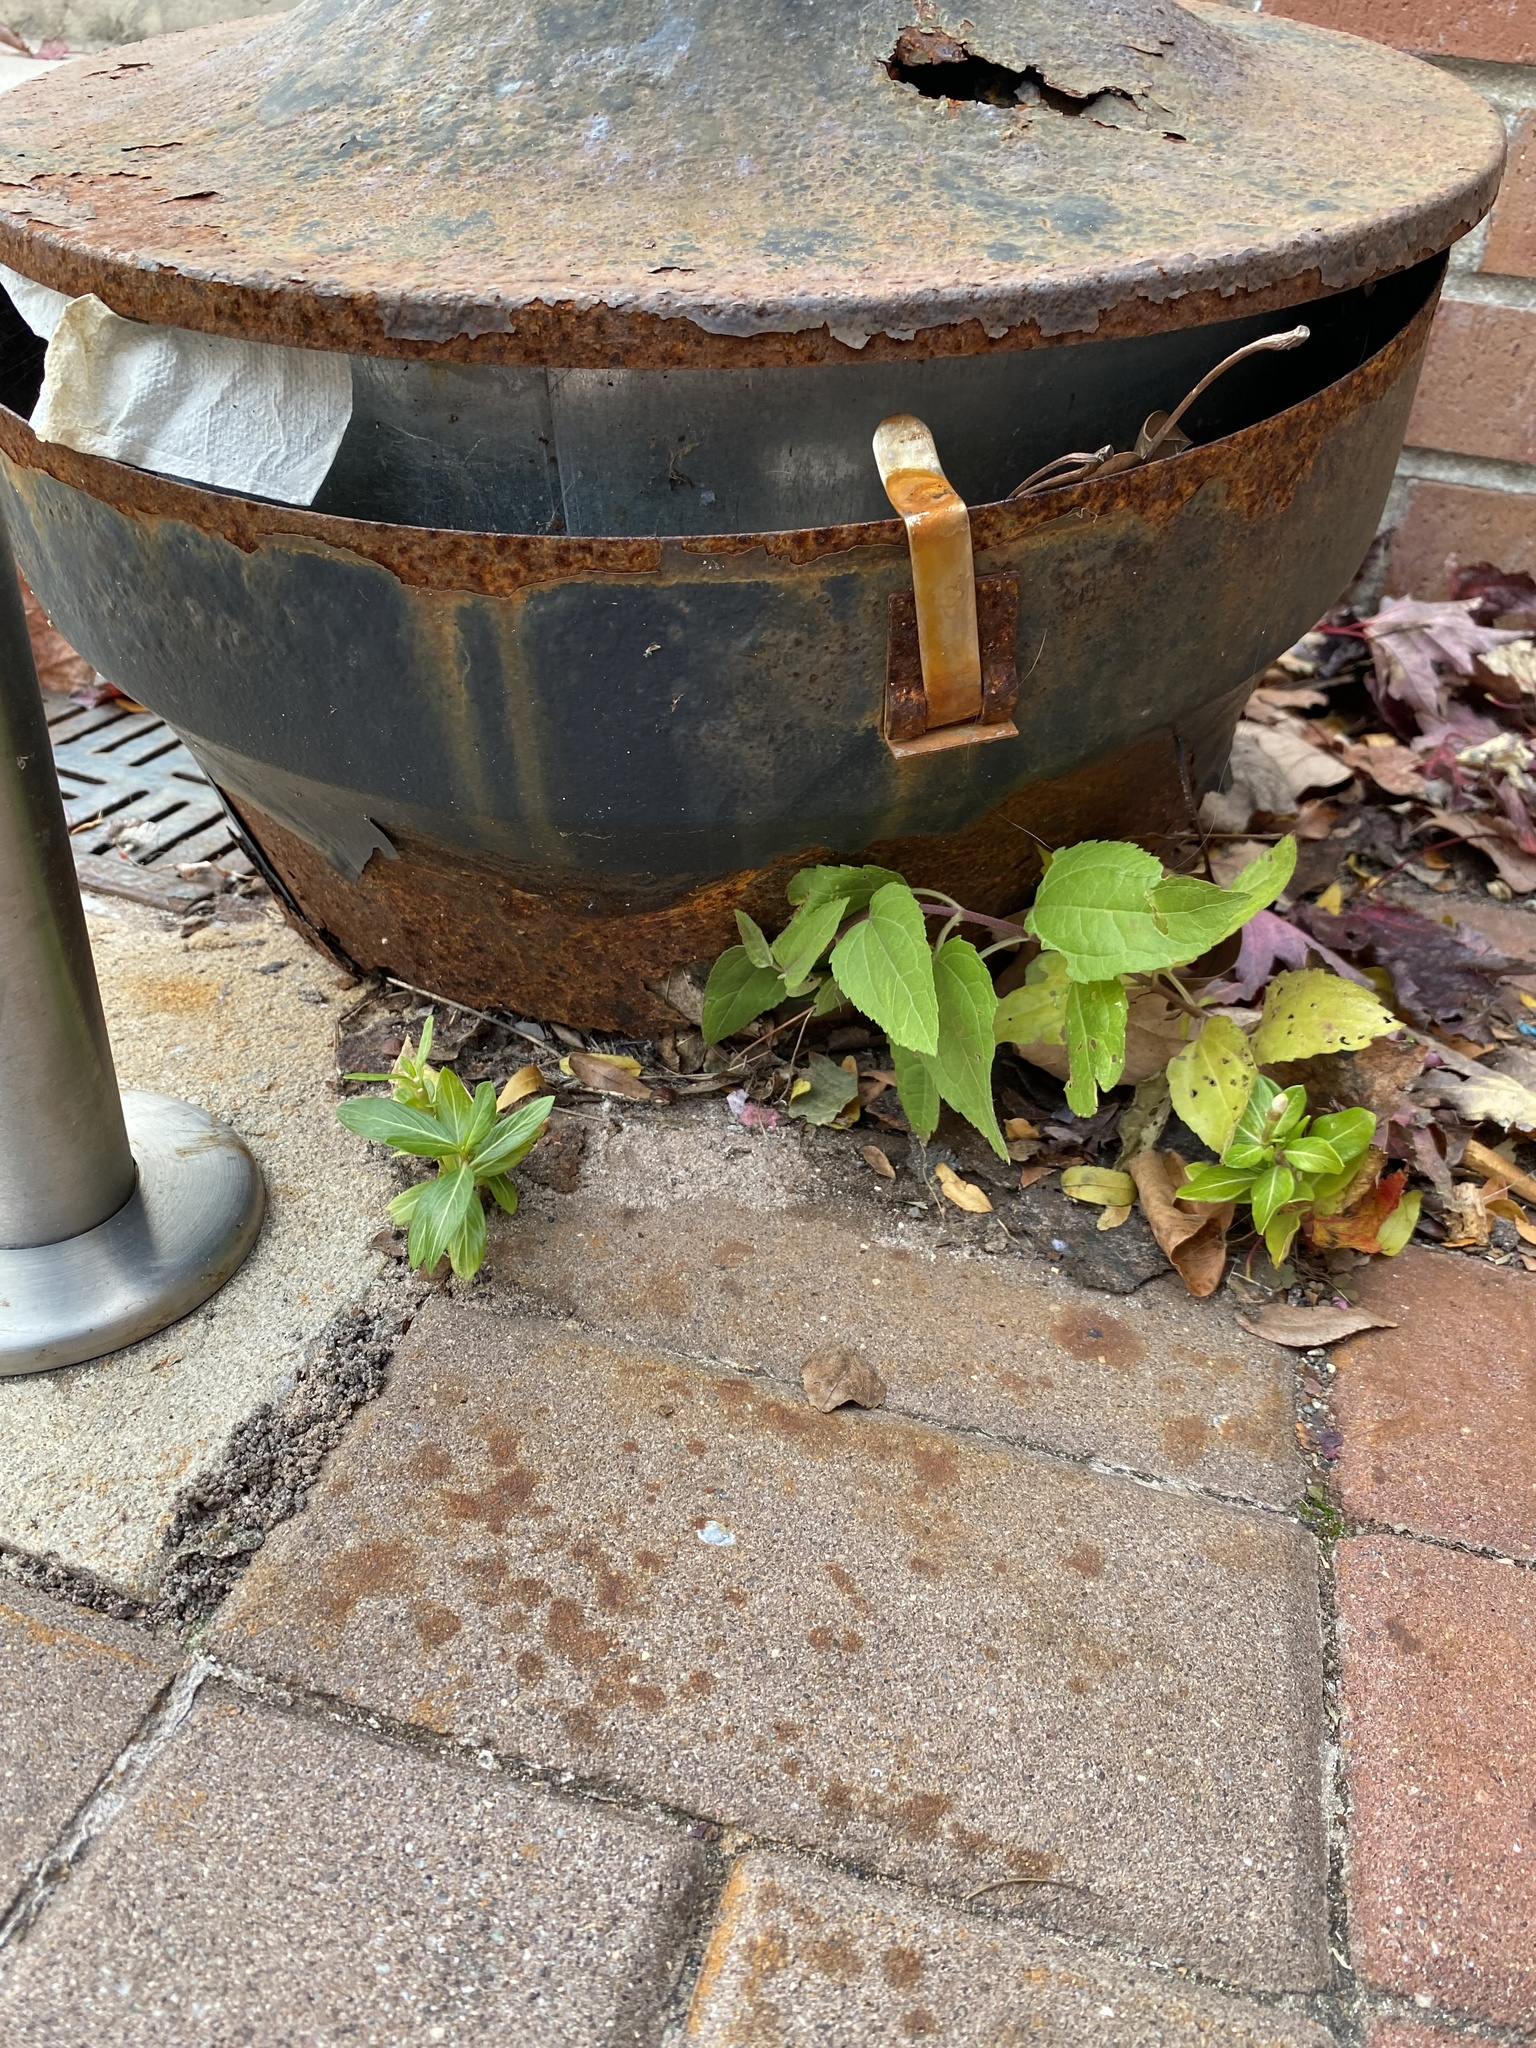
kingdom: Plantae
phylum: Tracheophyta
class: Magnoliopsida
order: Gentianales
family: Apocynaceae
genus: Catharanthus
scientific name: Catharanthus roseus
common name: Madagascar periwinkle
